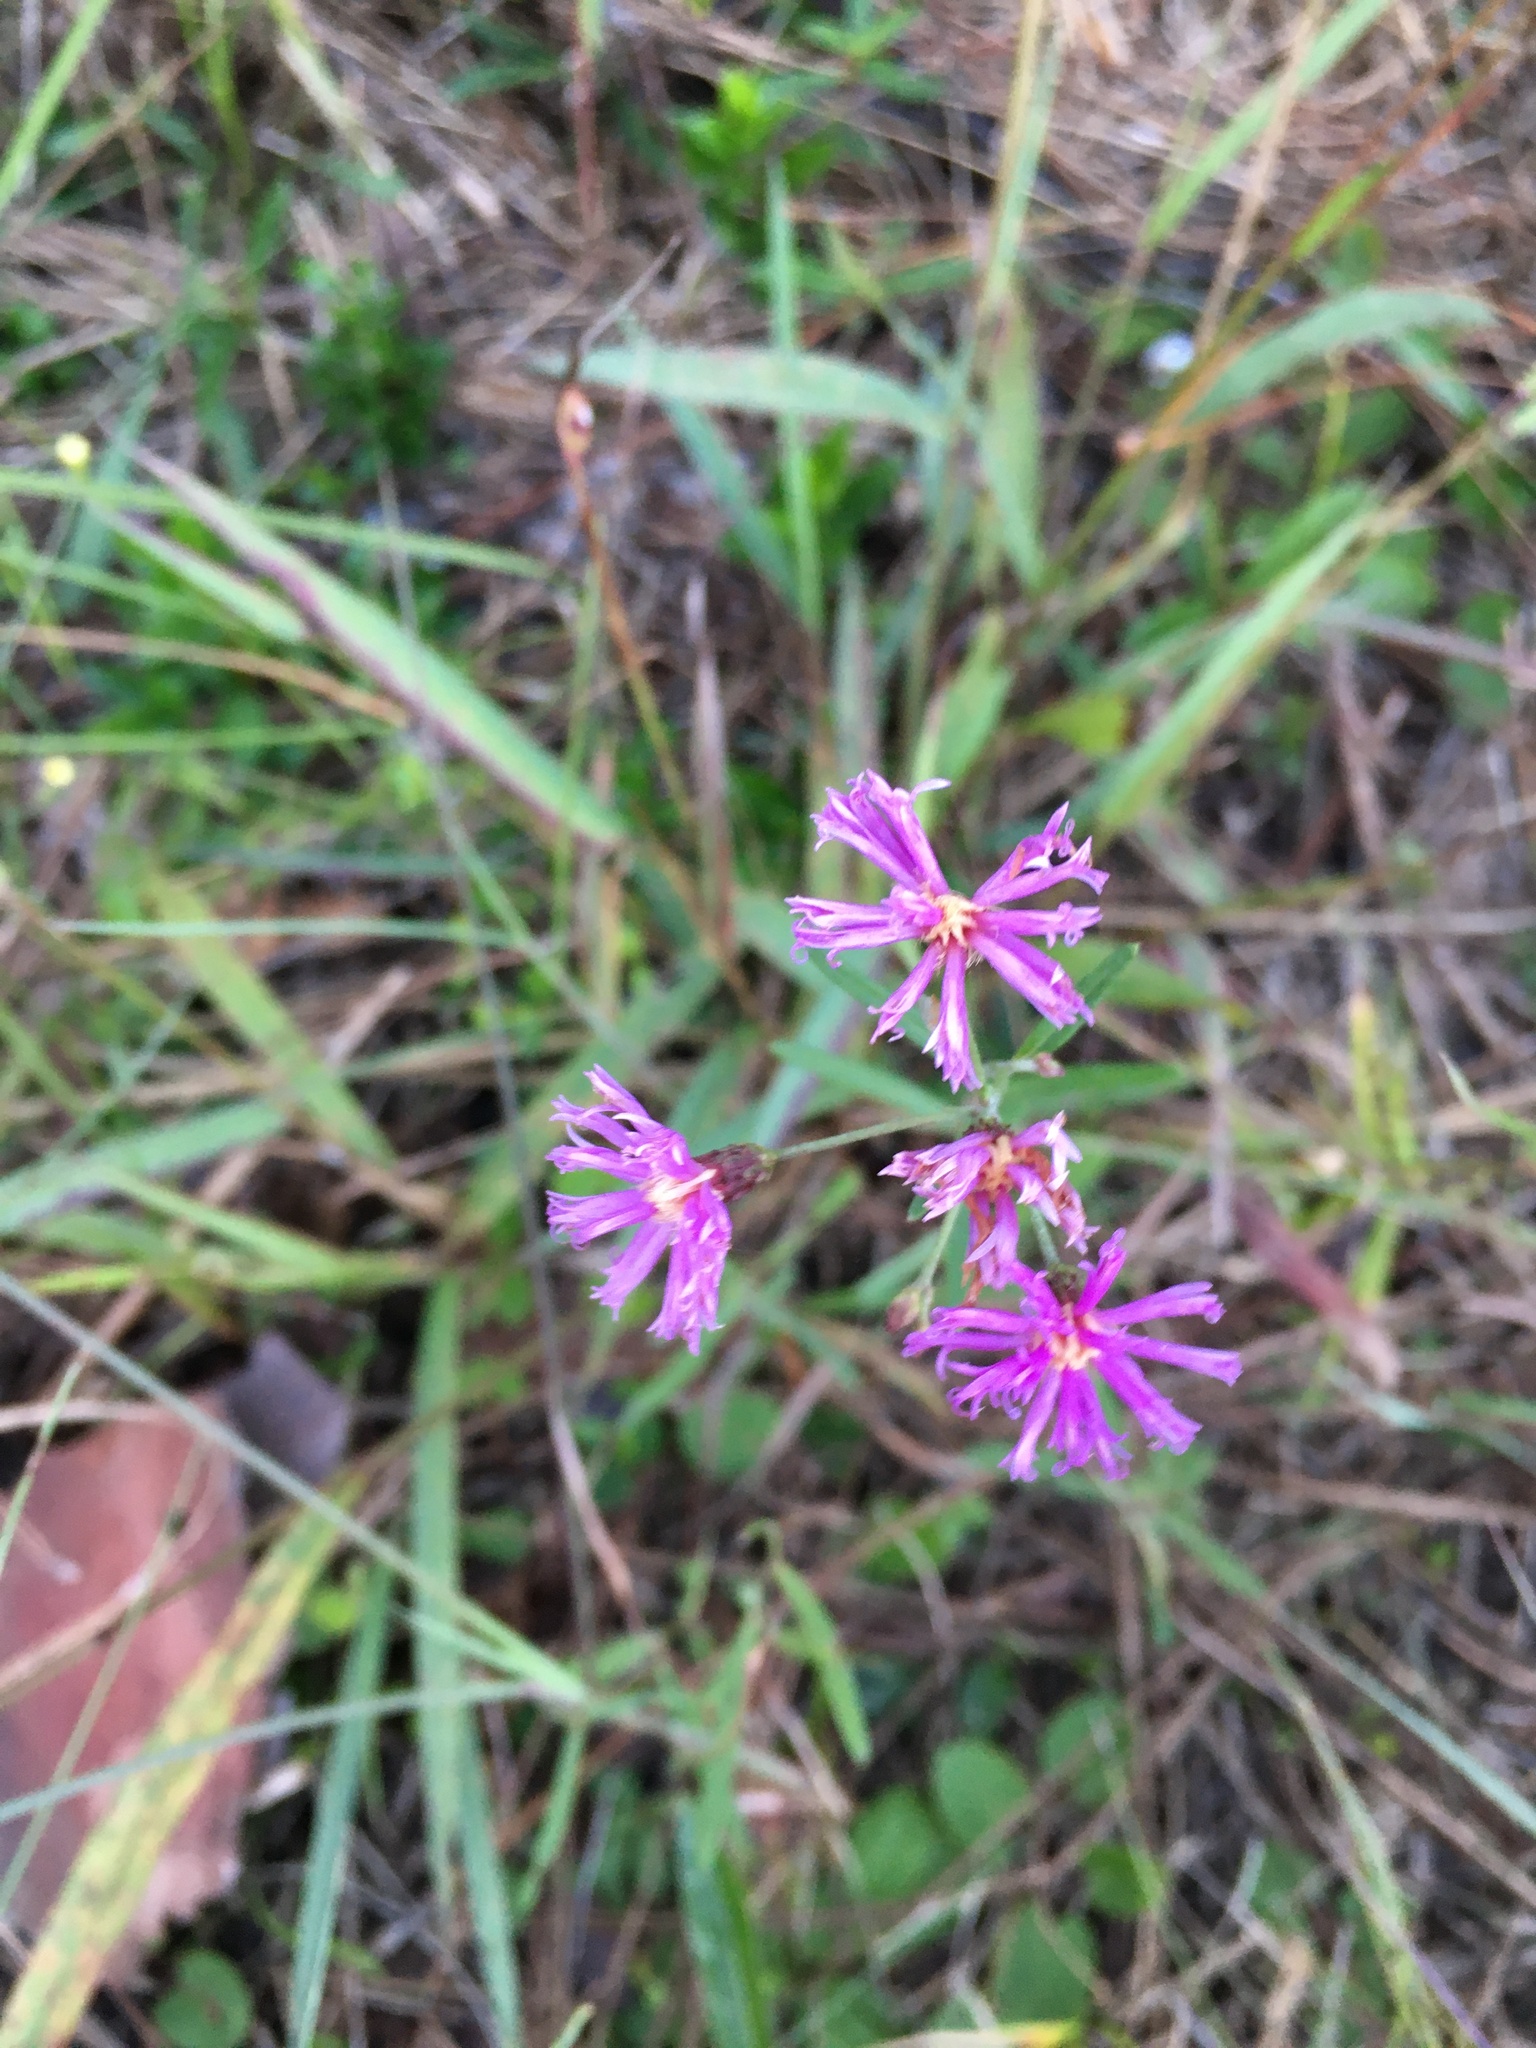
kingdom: Plantae
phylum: Tracheophyta
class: Magnoliopsida
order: Asterales
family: Asteraceae
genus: Vernonia
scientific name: Vernonia blodgettii
